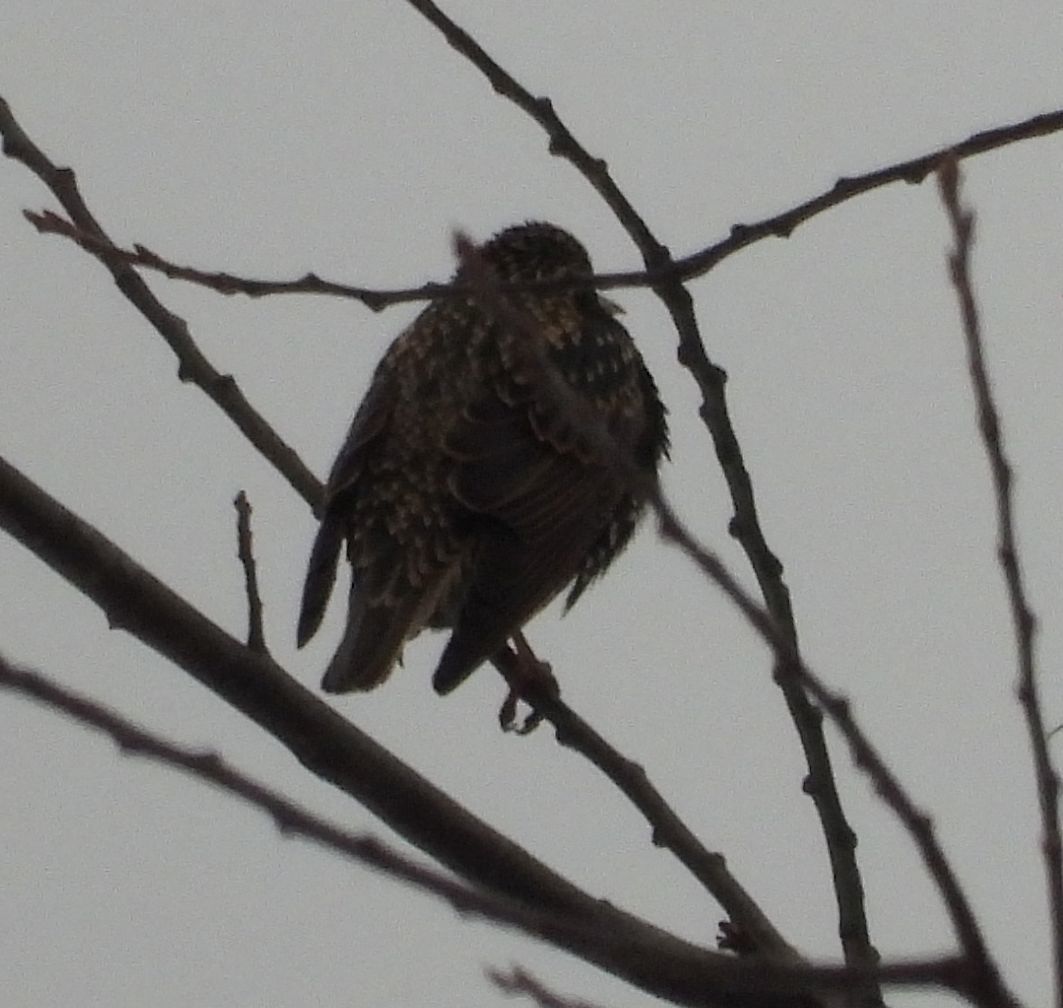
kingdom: Animalia
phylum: Chordata
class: Aves
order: Passeriformes
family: Sturnidae
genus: Sturnus
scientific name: Sturnus vulgaris
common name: Common starling
